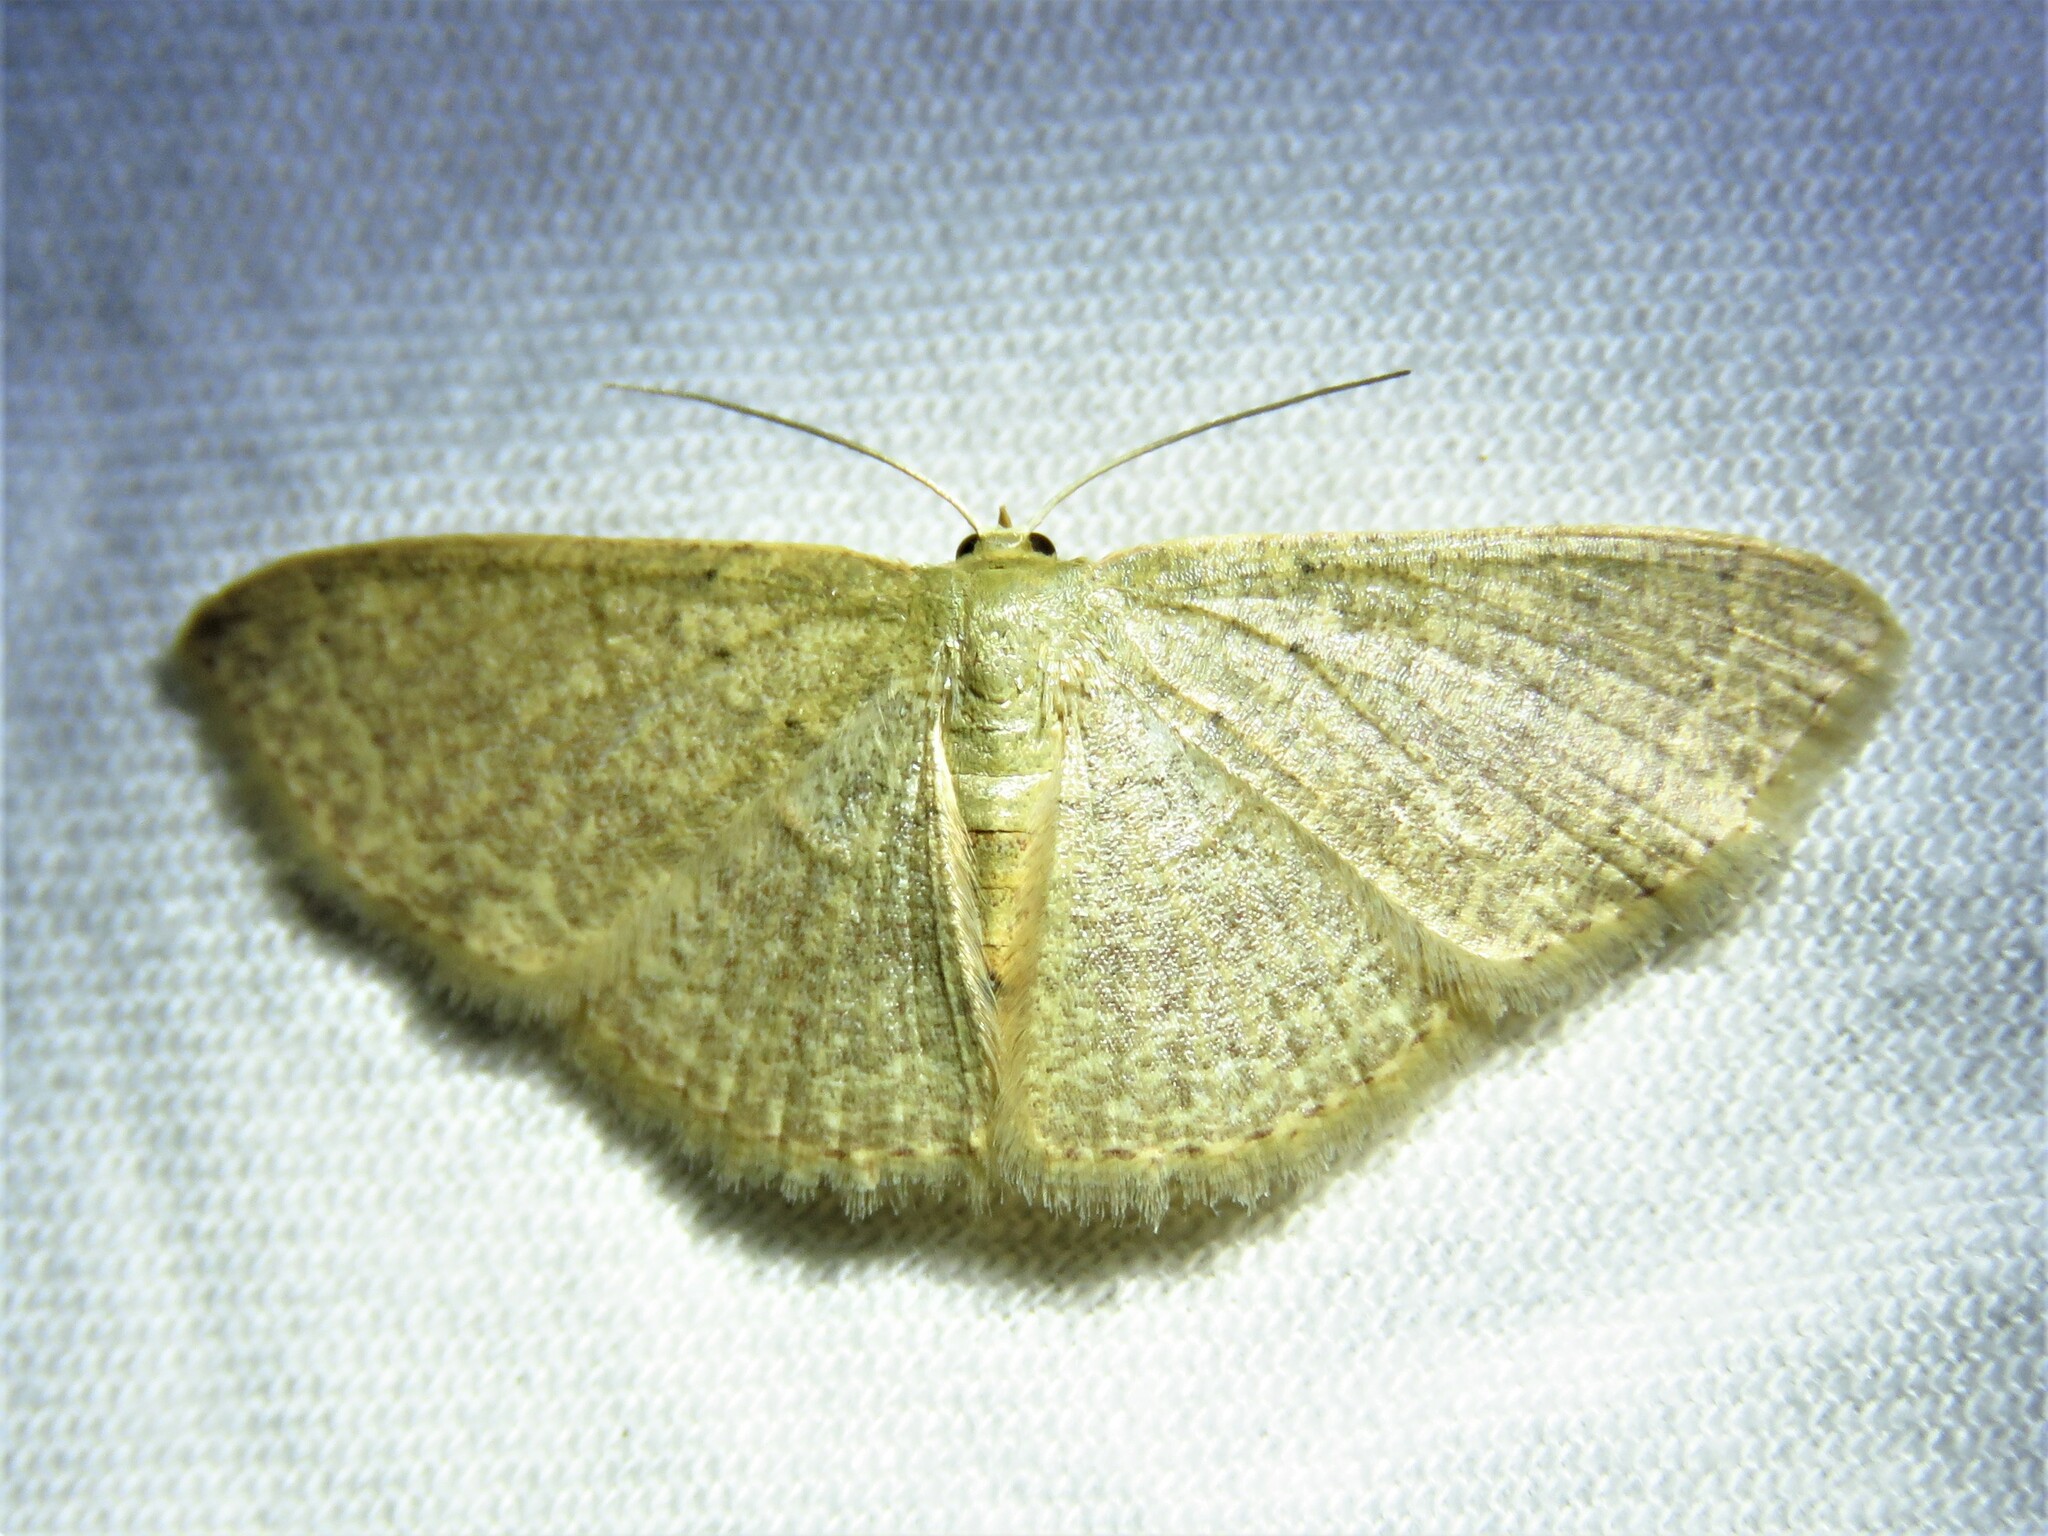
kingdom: Animalia
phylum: Arthropoda
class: Insecta
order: Lepidoptera
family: Geometridae
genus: Pleuroprucha
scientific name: Pleuroprucha insulsaria
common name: Common tan wave
